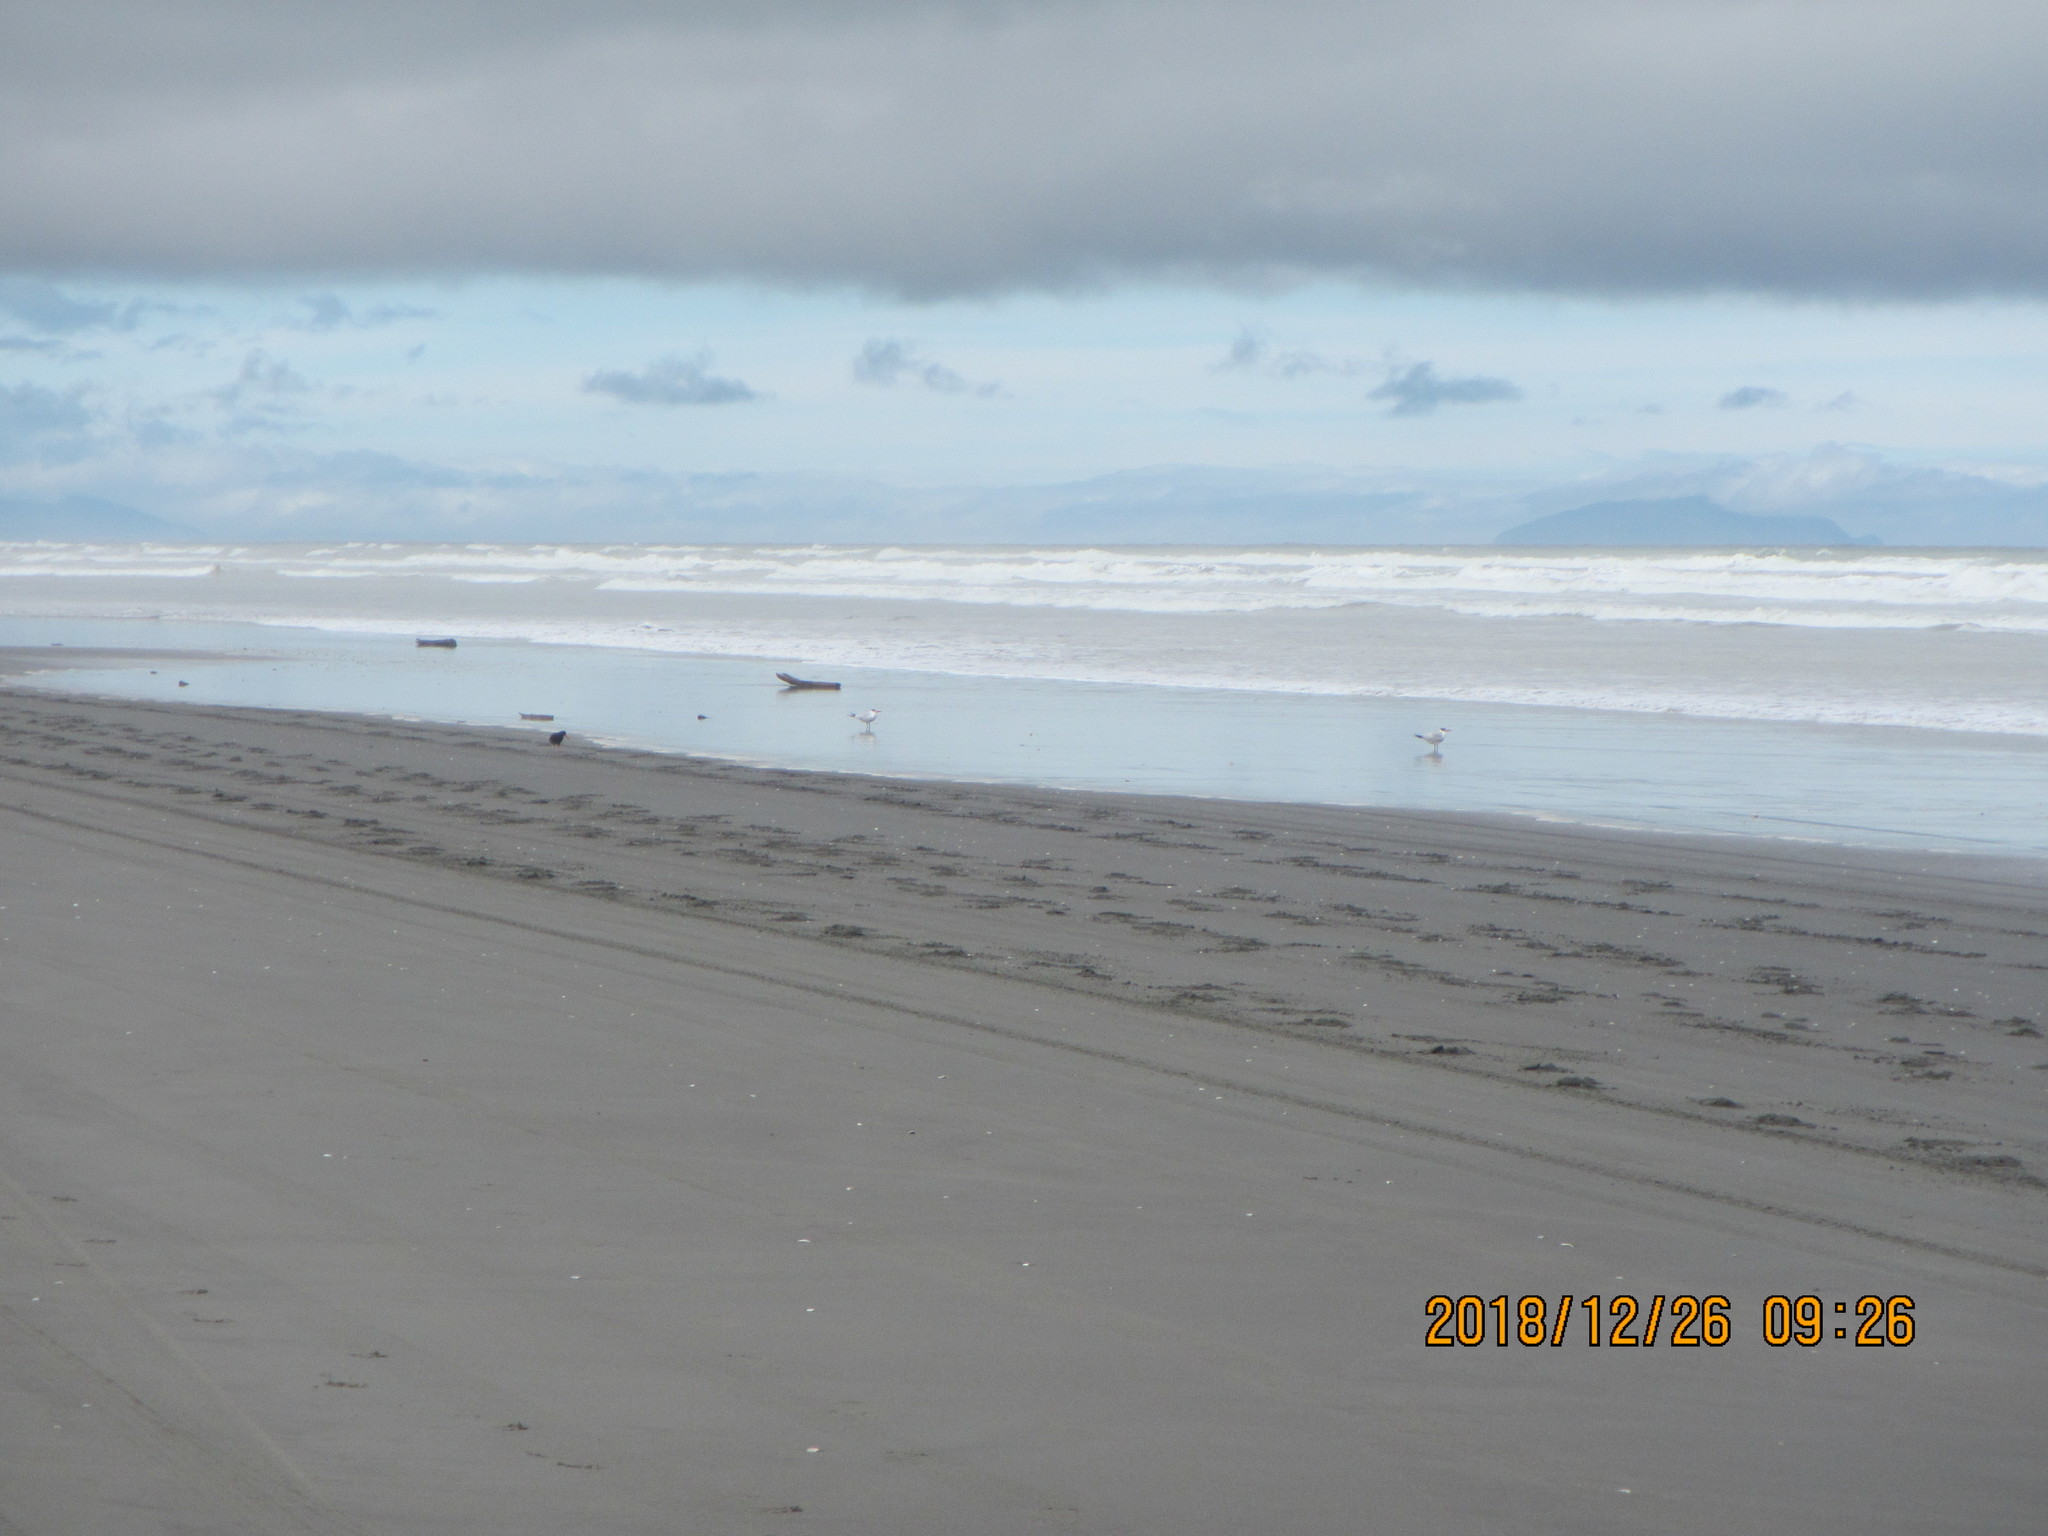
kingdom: Animalia
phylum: Chordata
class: Aves
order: Charadriiformes
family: Laridae
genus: Hydroprogne
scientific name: Hydroprogne caspia
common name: Caspian tern
